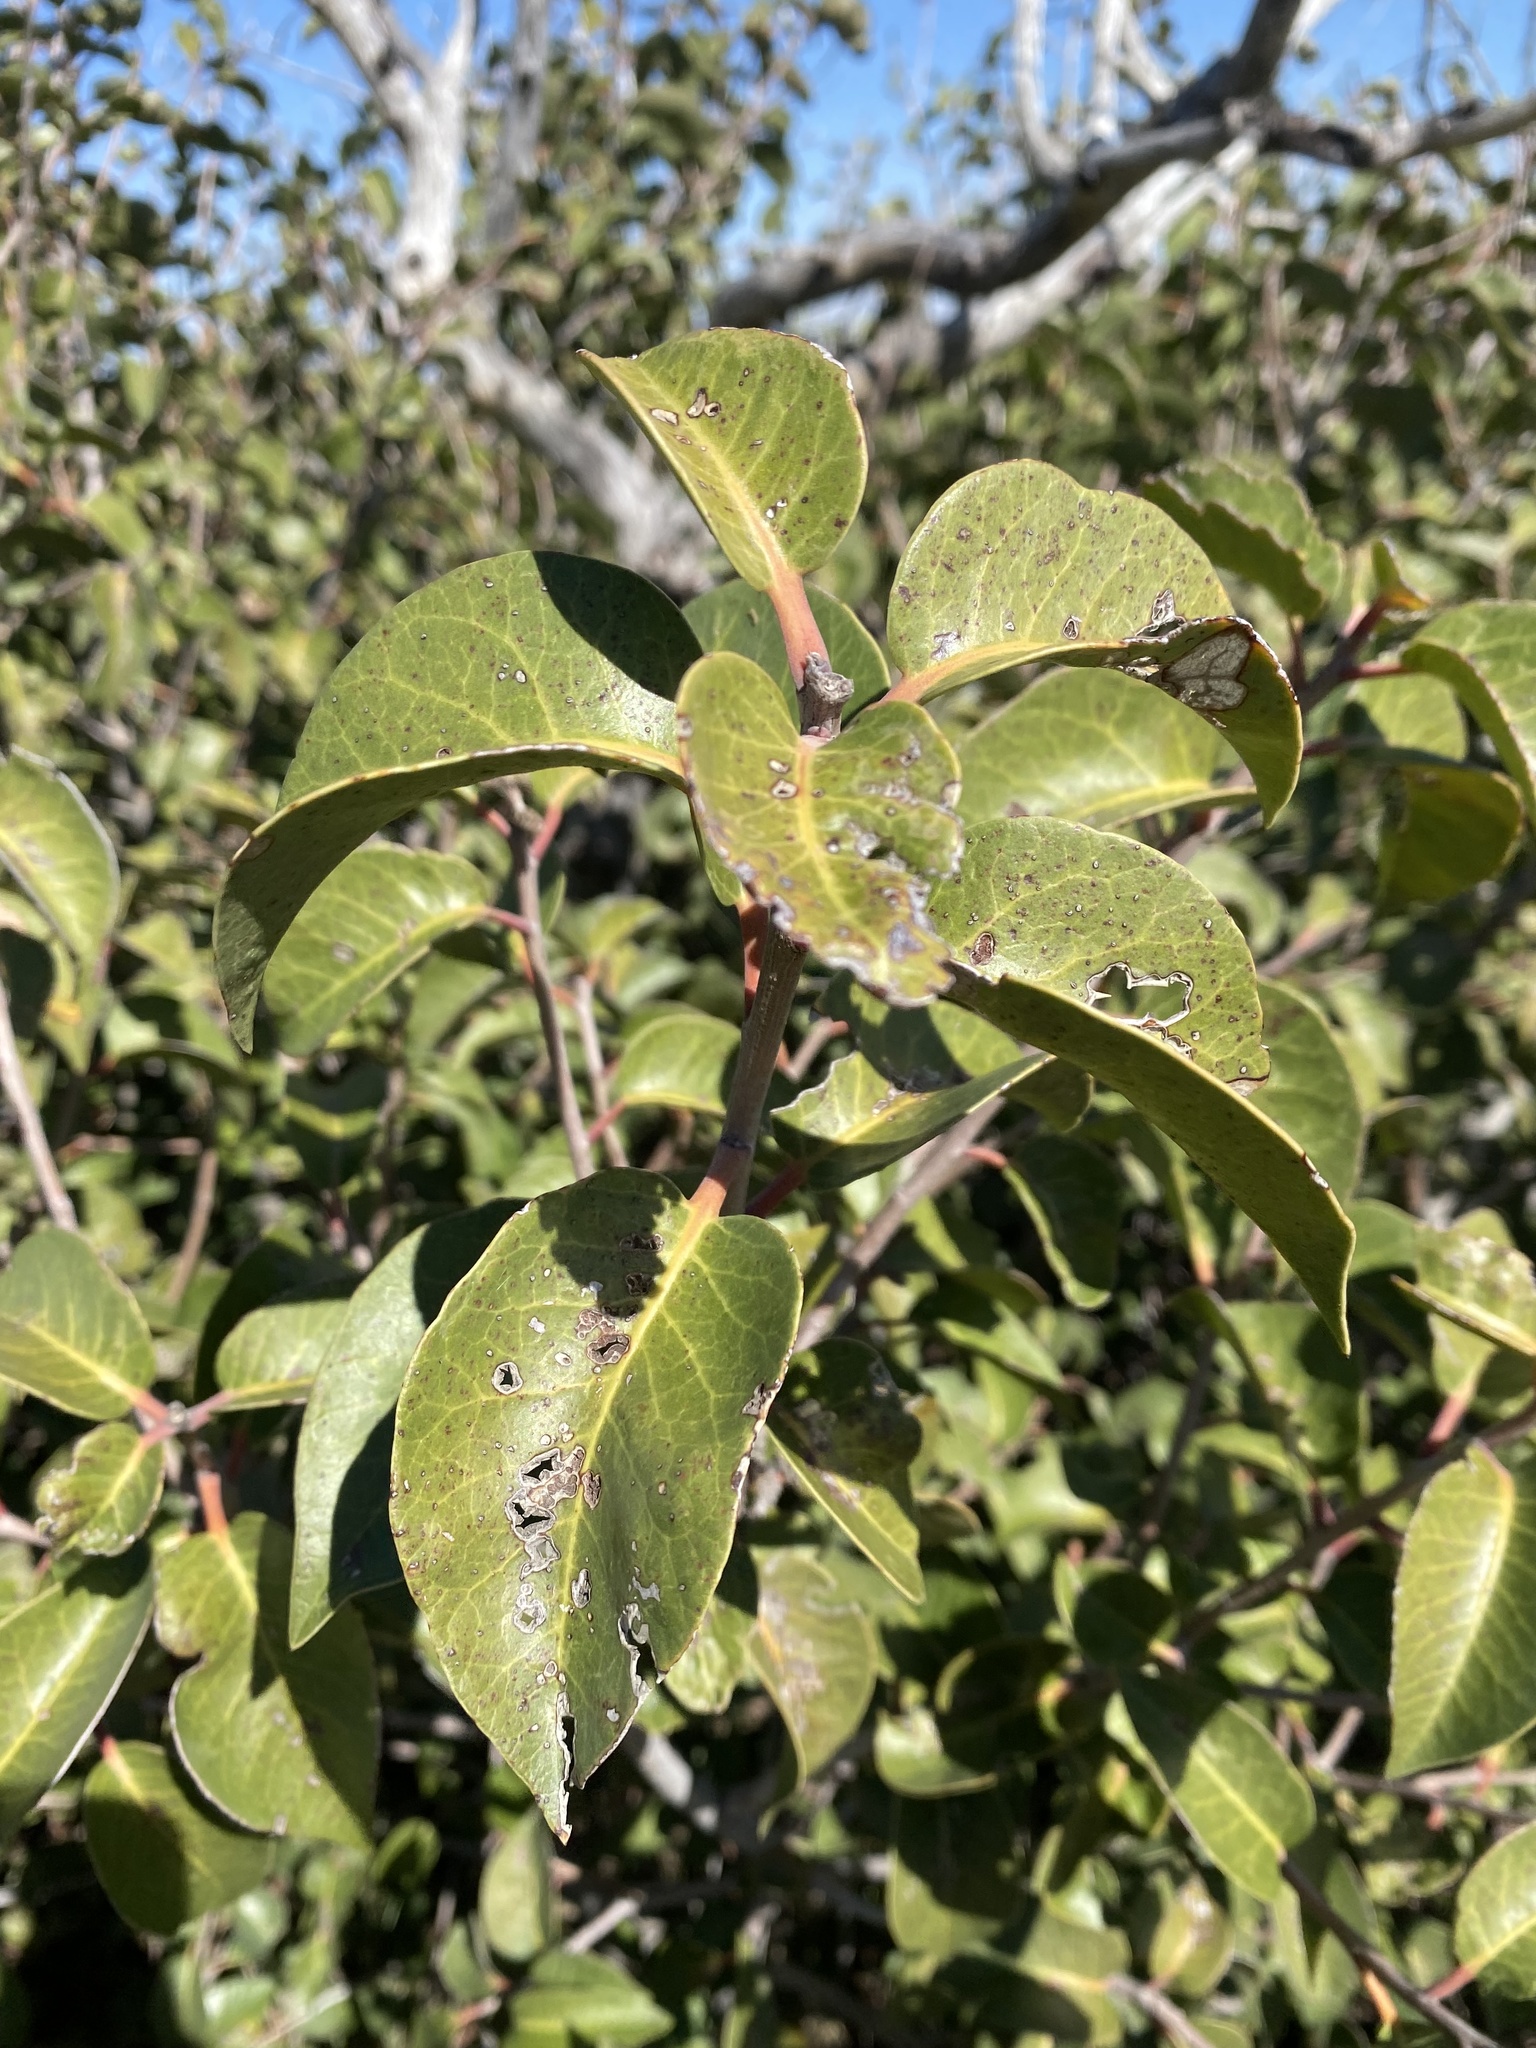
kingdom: Plantae
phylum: Tracheophyta
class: Magnoliopsida
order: Sapindales
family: Anacardiaceae
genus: Rhus
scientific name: Rhus ovata
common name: Sugar sumac
